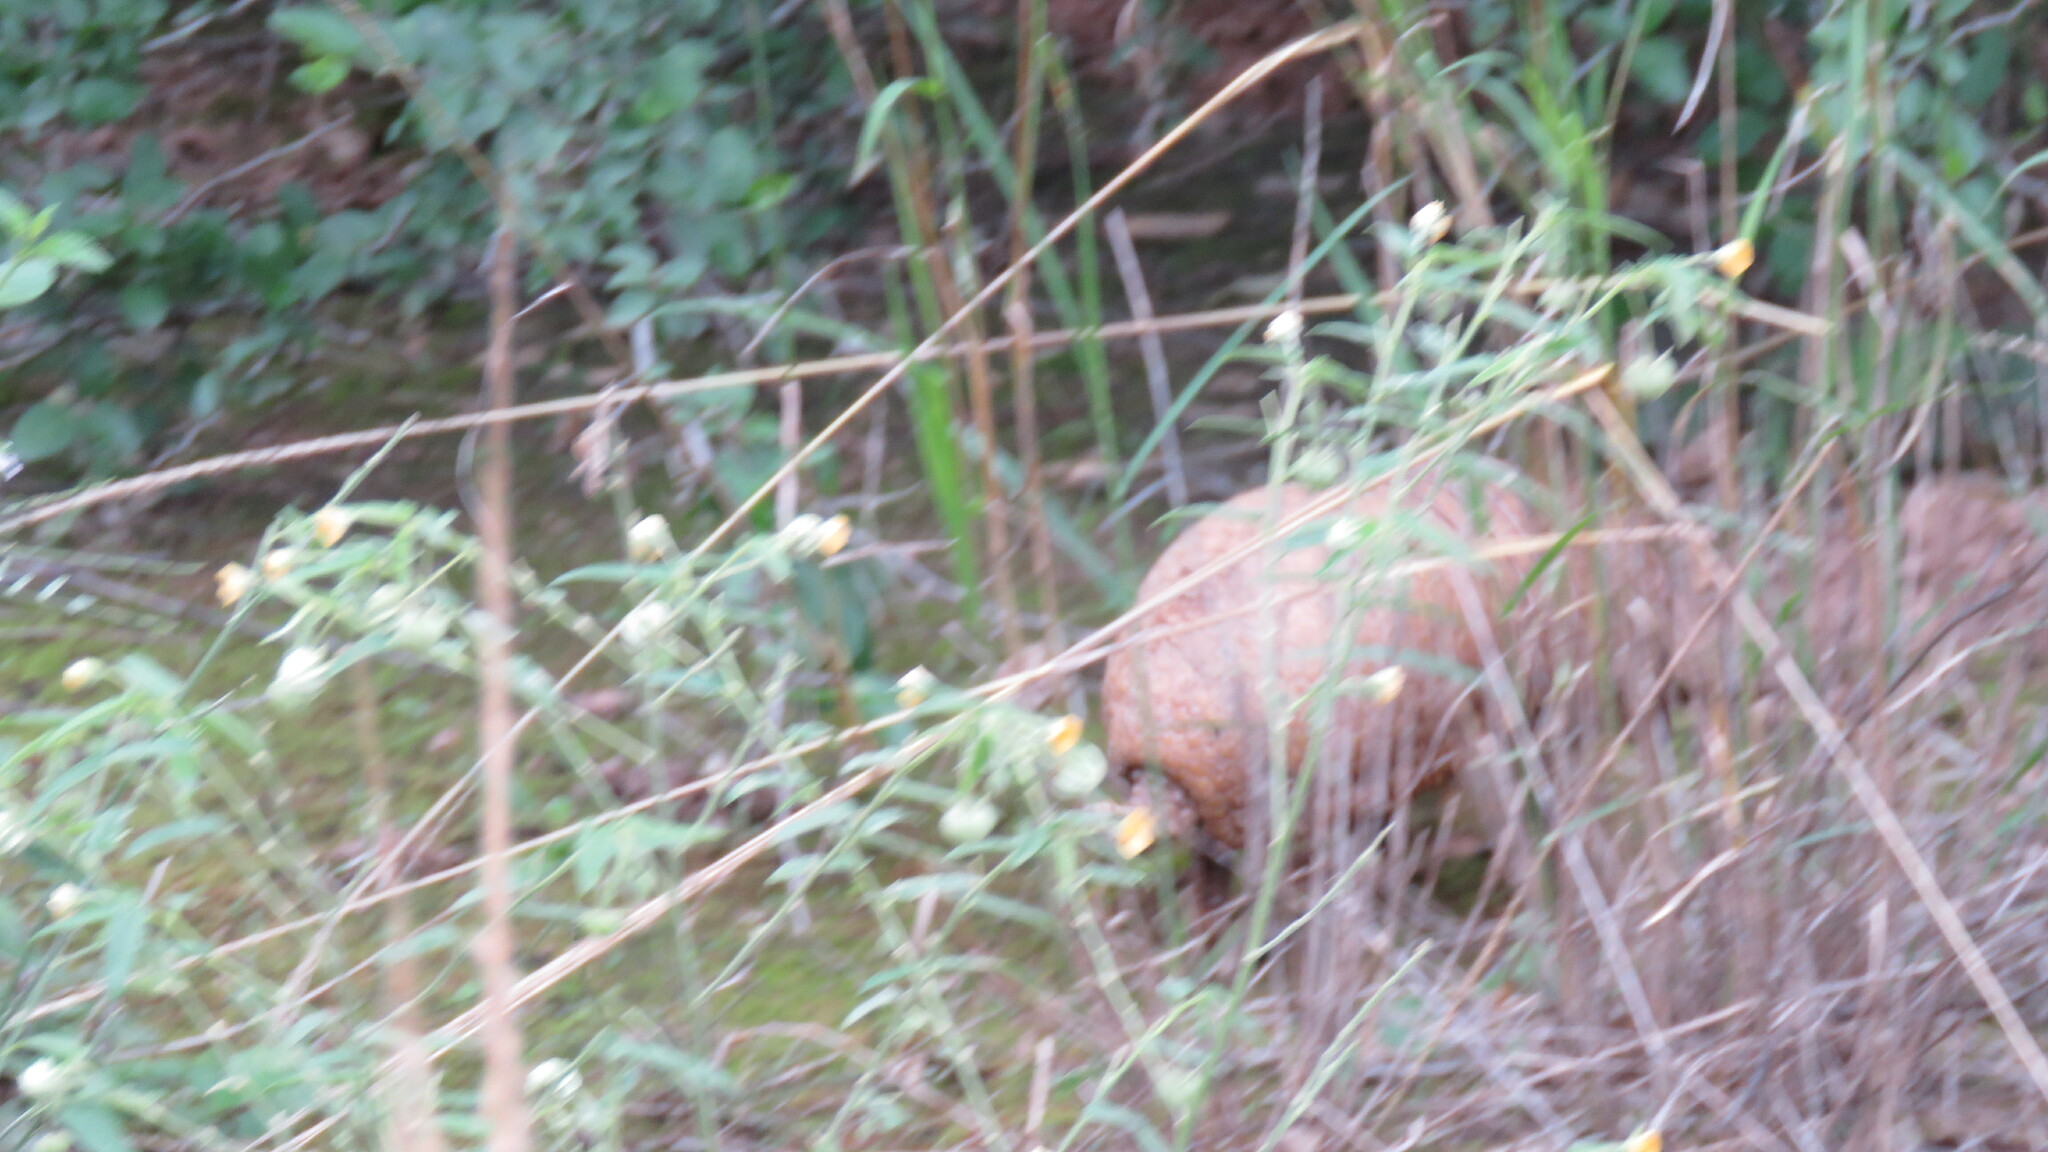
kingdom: Animalia
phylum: Chordata
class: Mammalia
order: Cingulata
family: Dasypodidae
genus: Tolypeutes
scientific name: Tolypeutes matacus
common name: Southern three-banded armadillo
